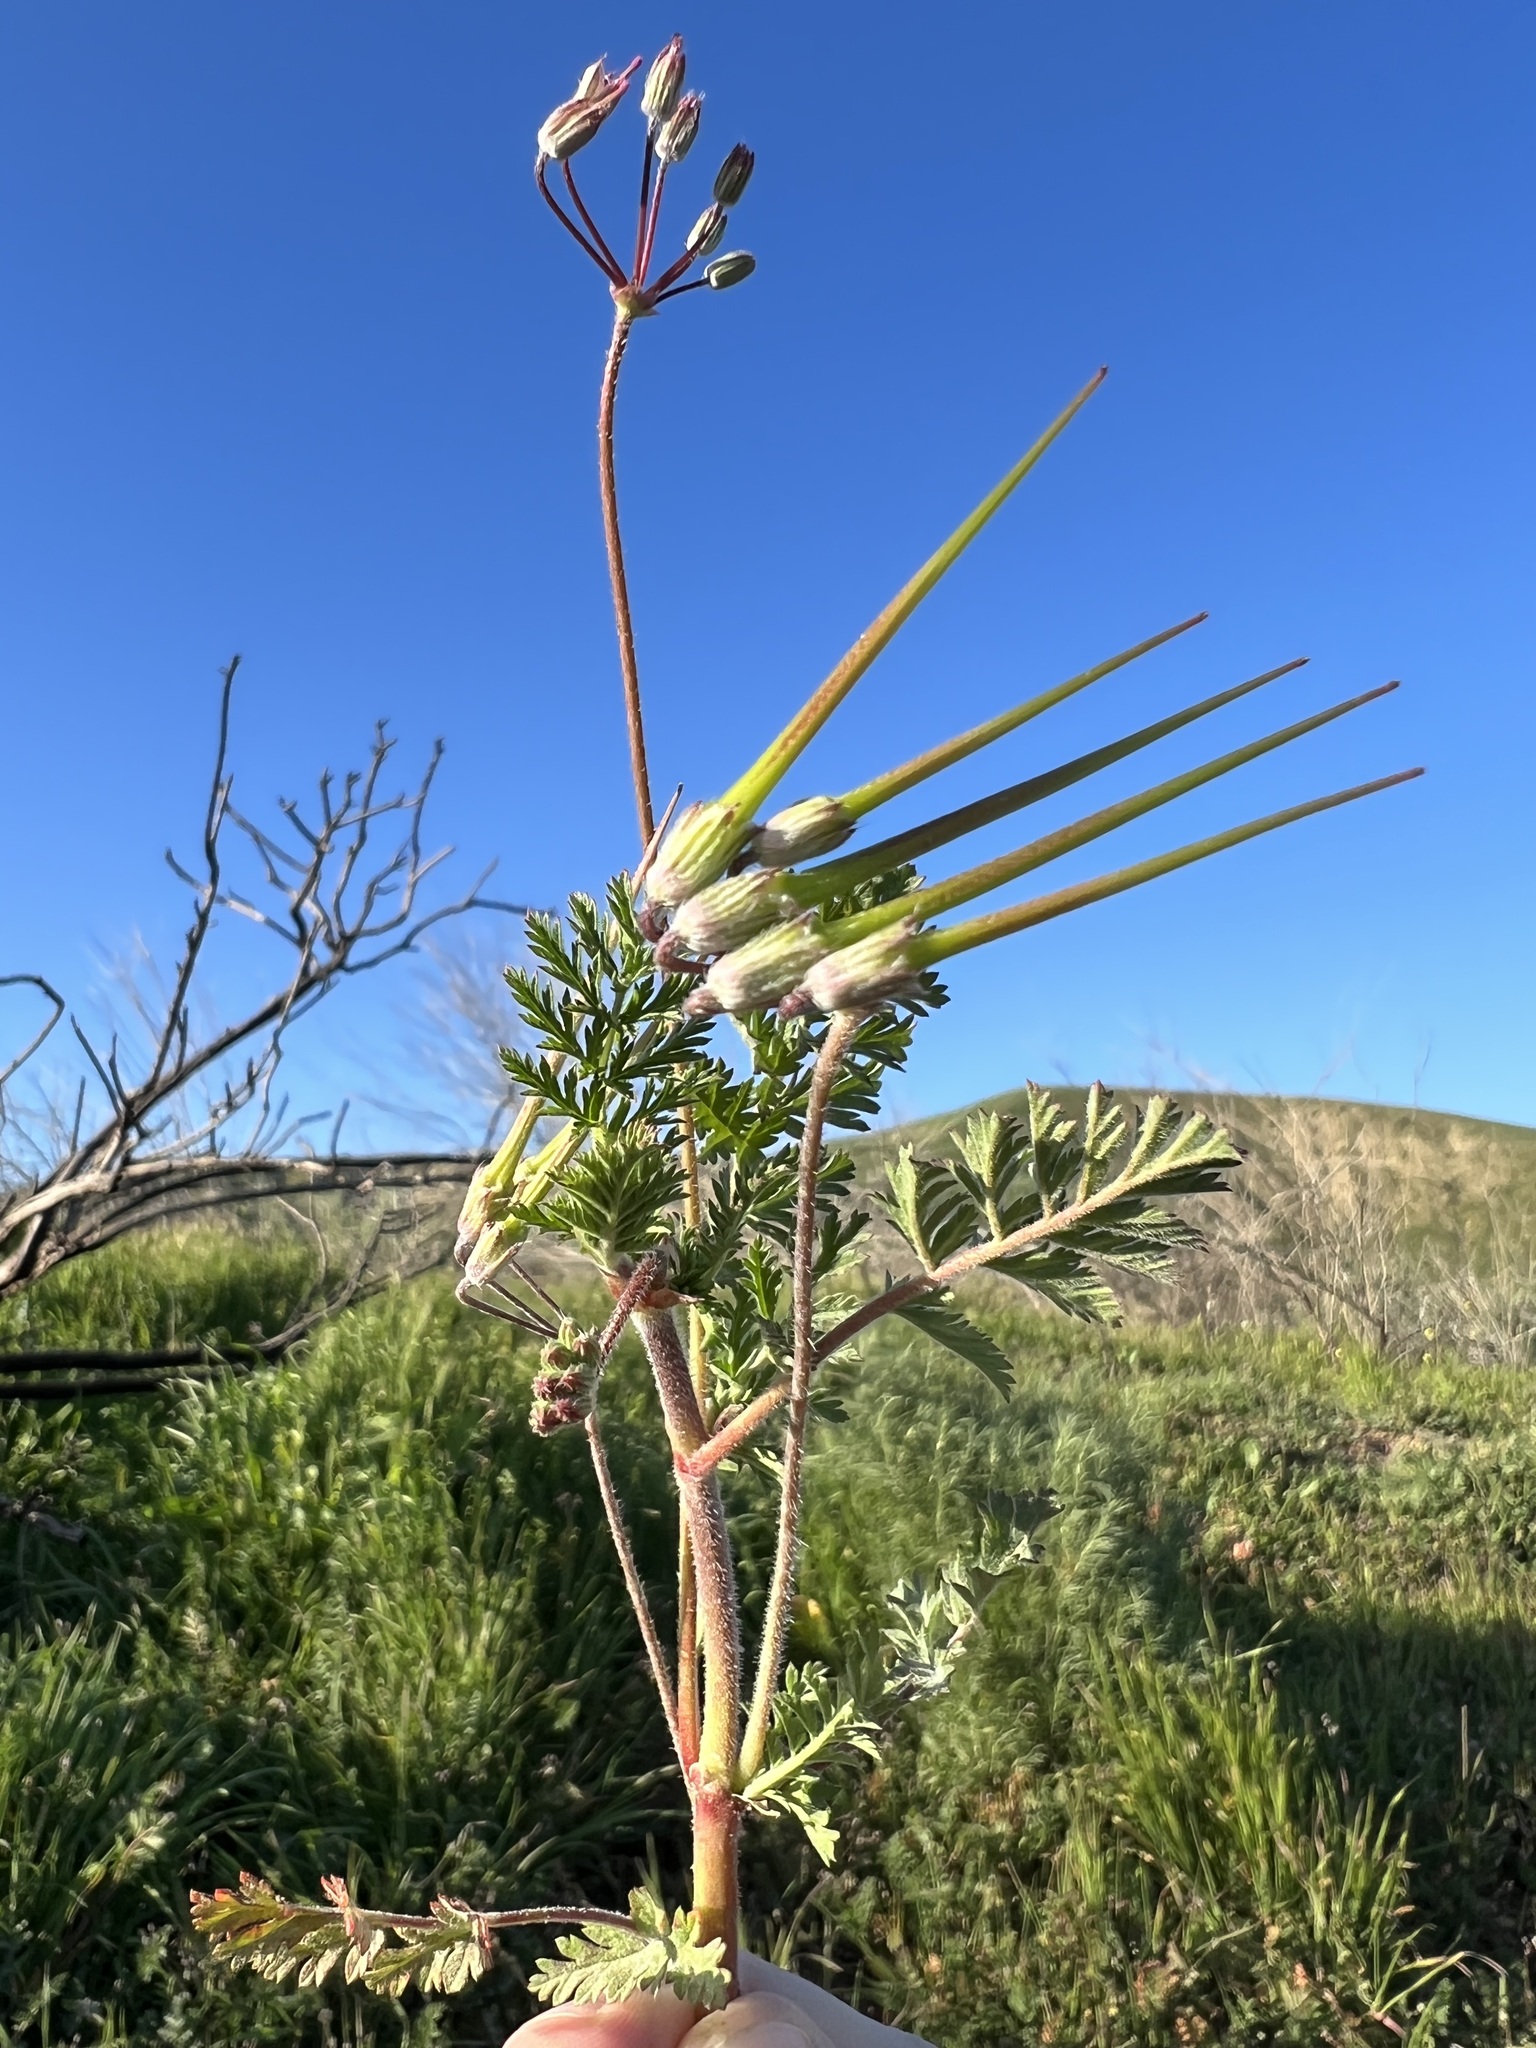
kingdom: Plantae
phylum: Tracheophyta
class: Magnoliopsida
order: Geraniales
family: Geraniaceae
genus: Erodium
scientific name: Erodium cicutarium
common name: Common stork's-bill
